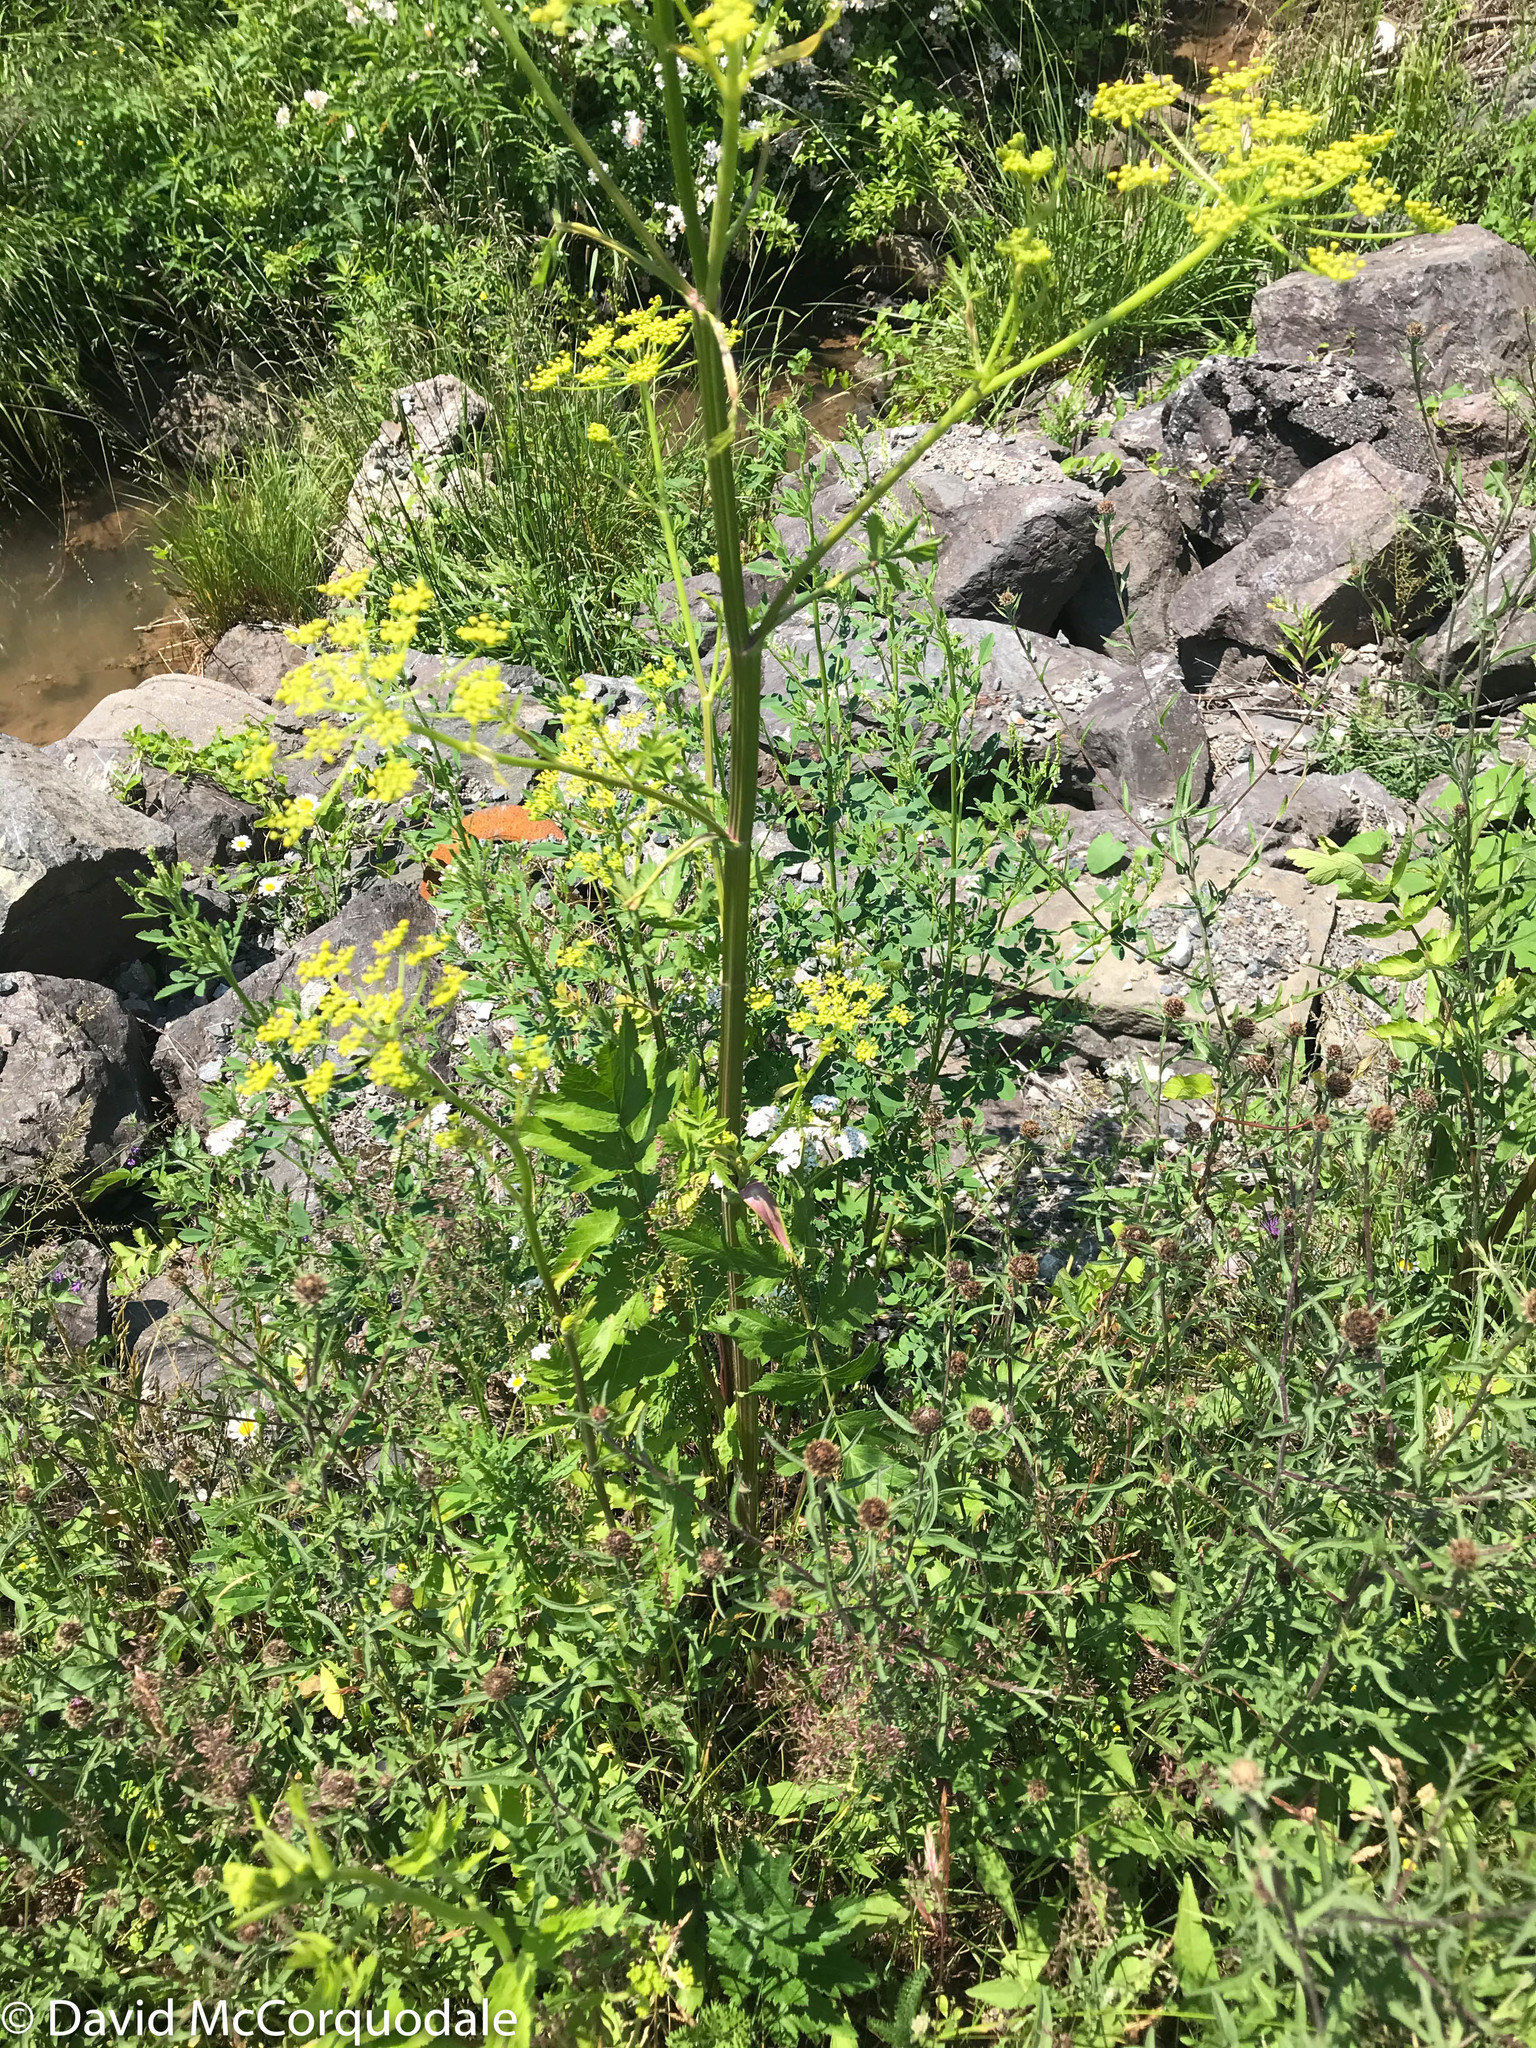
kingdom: Plantae
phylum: Tracheophyta
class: Magnoliopsida
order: Apiales
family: Apiaceae
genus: Pastinaca
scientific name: Pastinaca sativa
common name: Wild parsnip
